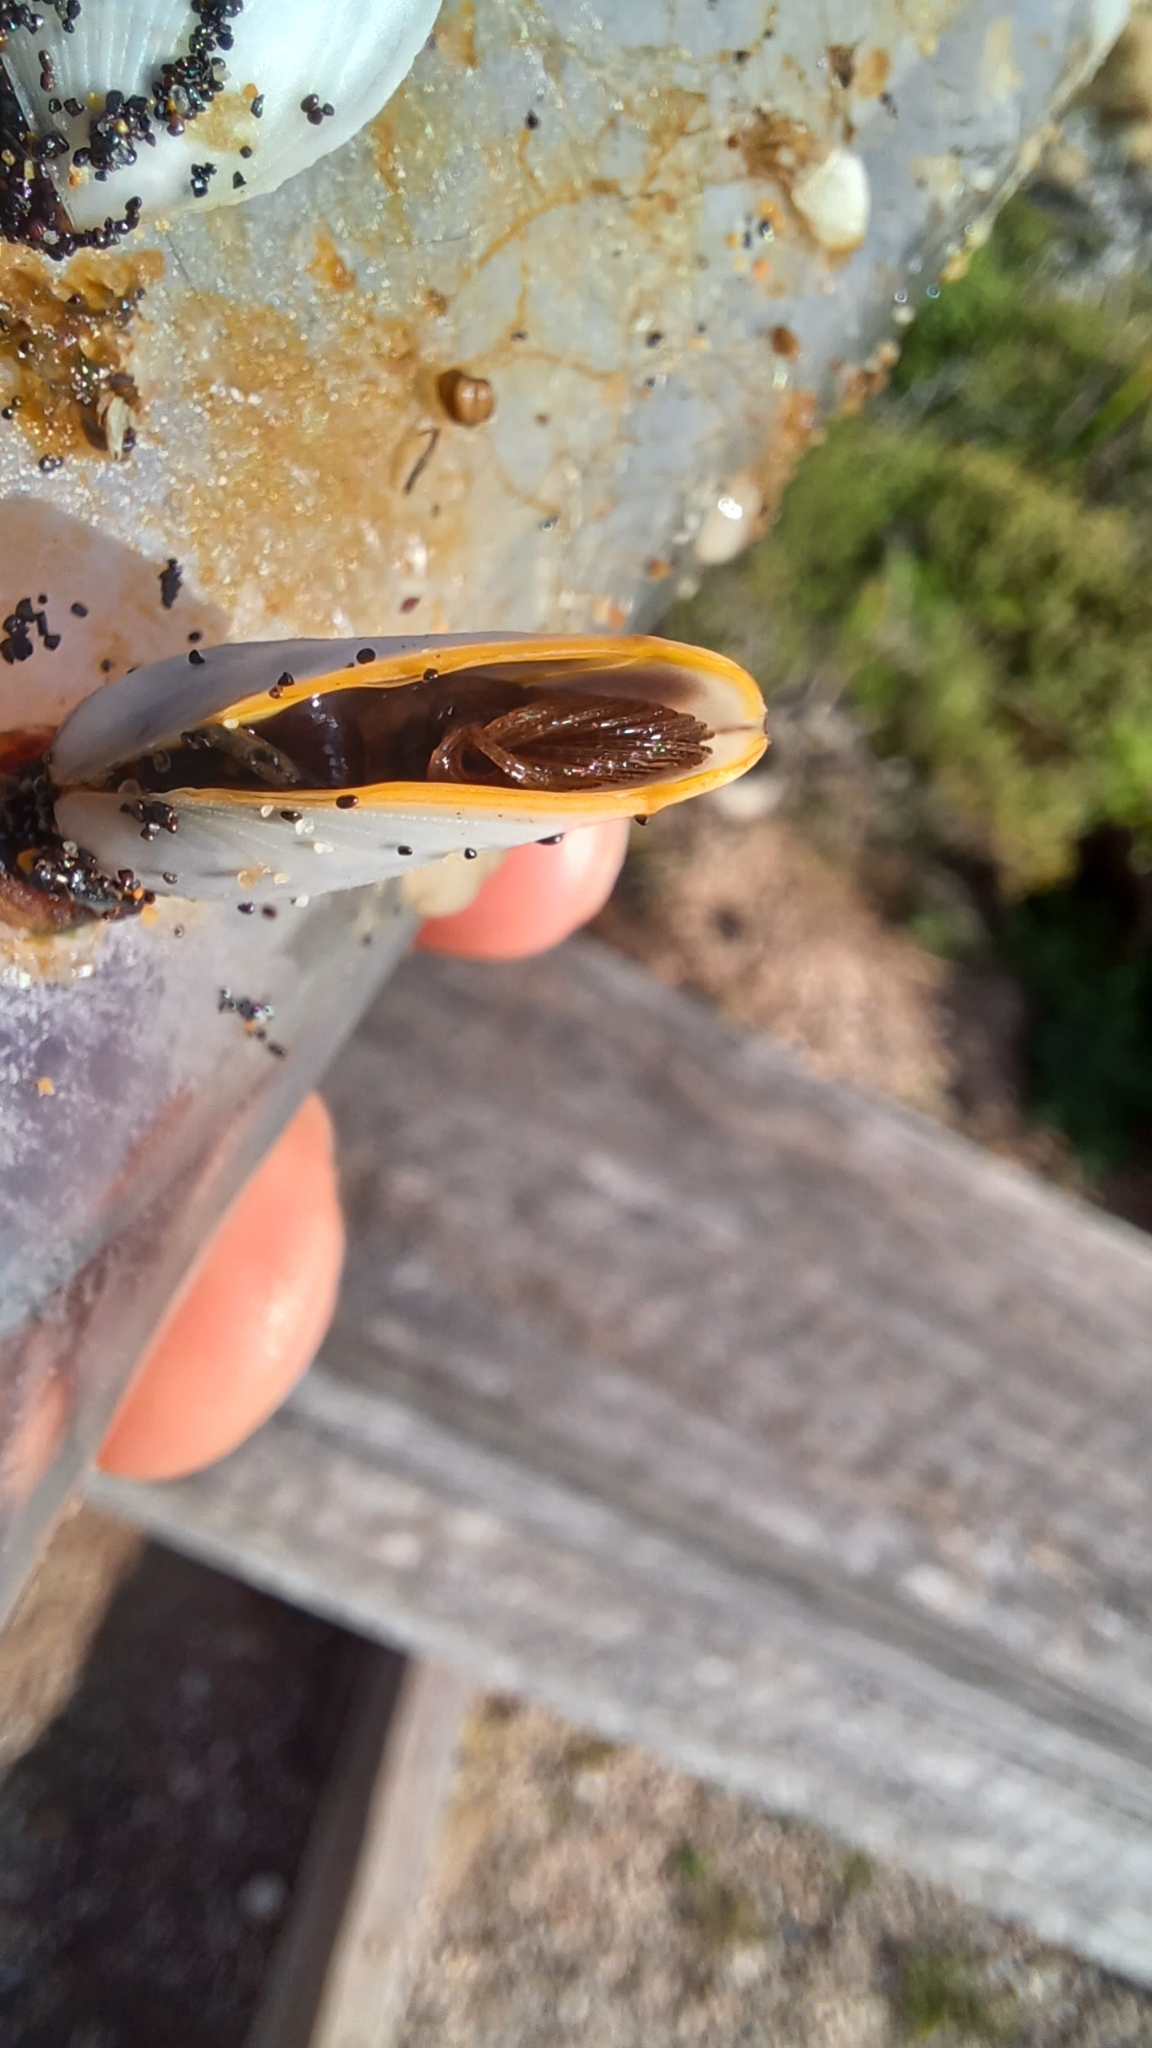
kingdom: Animalia
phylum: Arthropoda
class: Maxillopoda
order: Pedunculata
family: Lepadidae
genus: Lepas
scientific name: Lepas anserifera
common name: Goose barnacle
